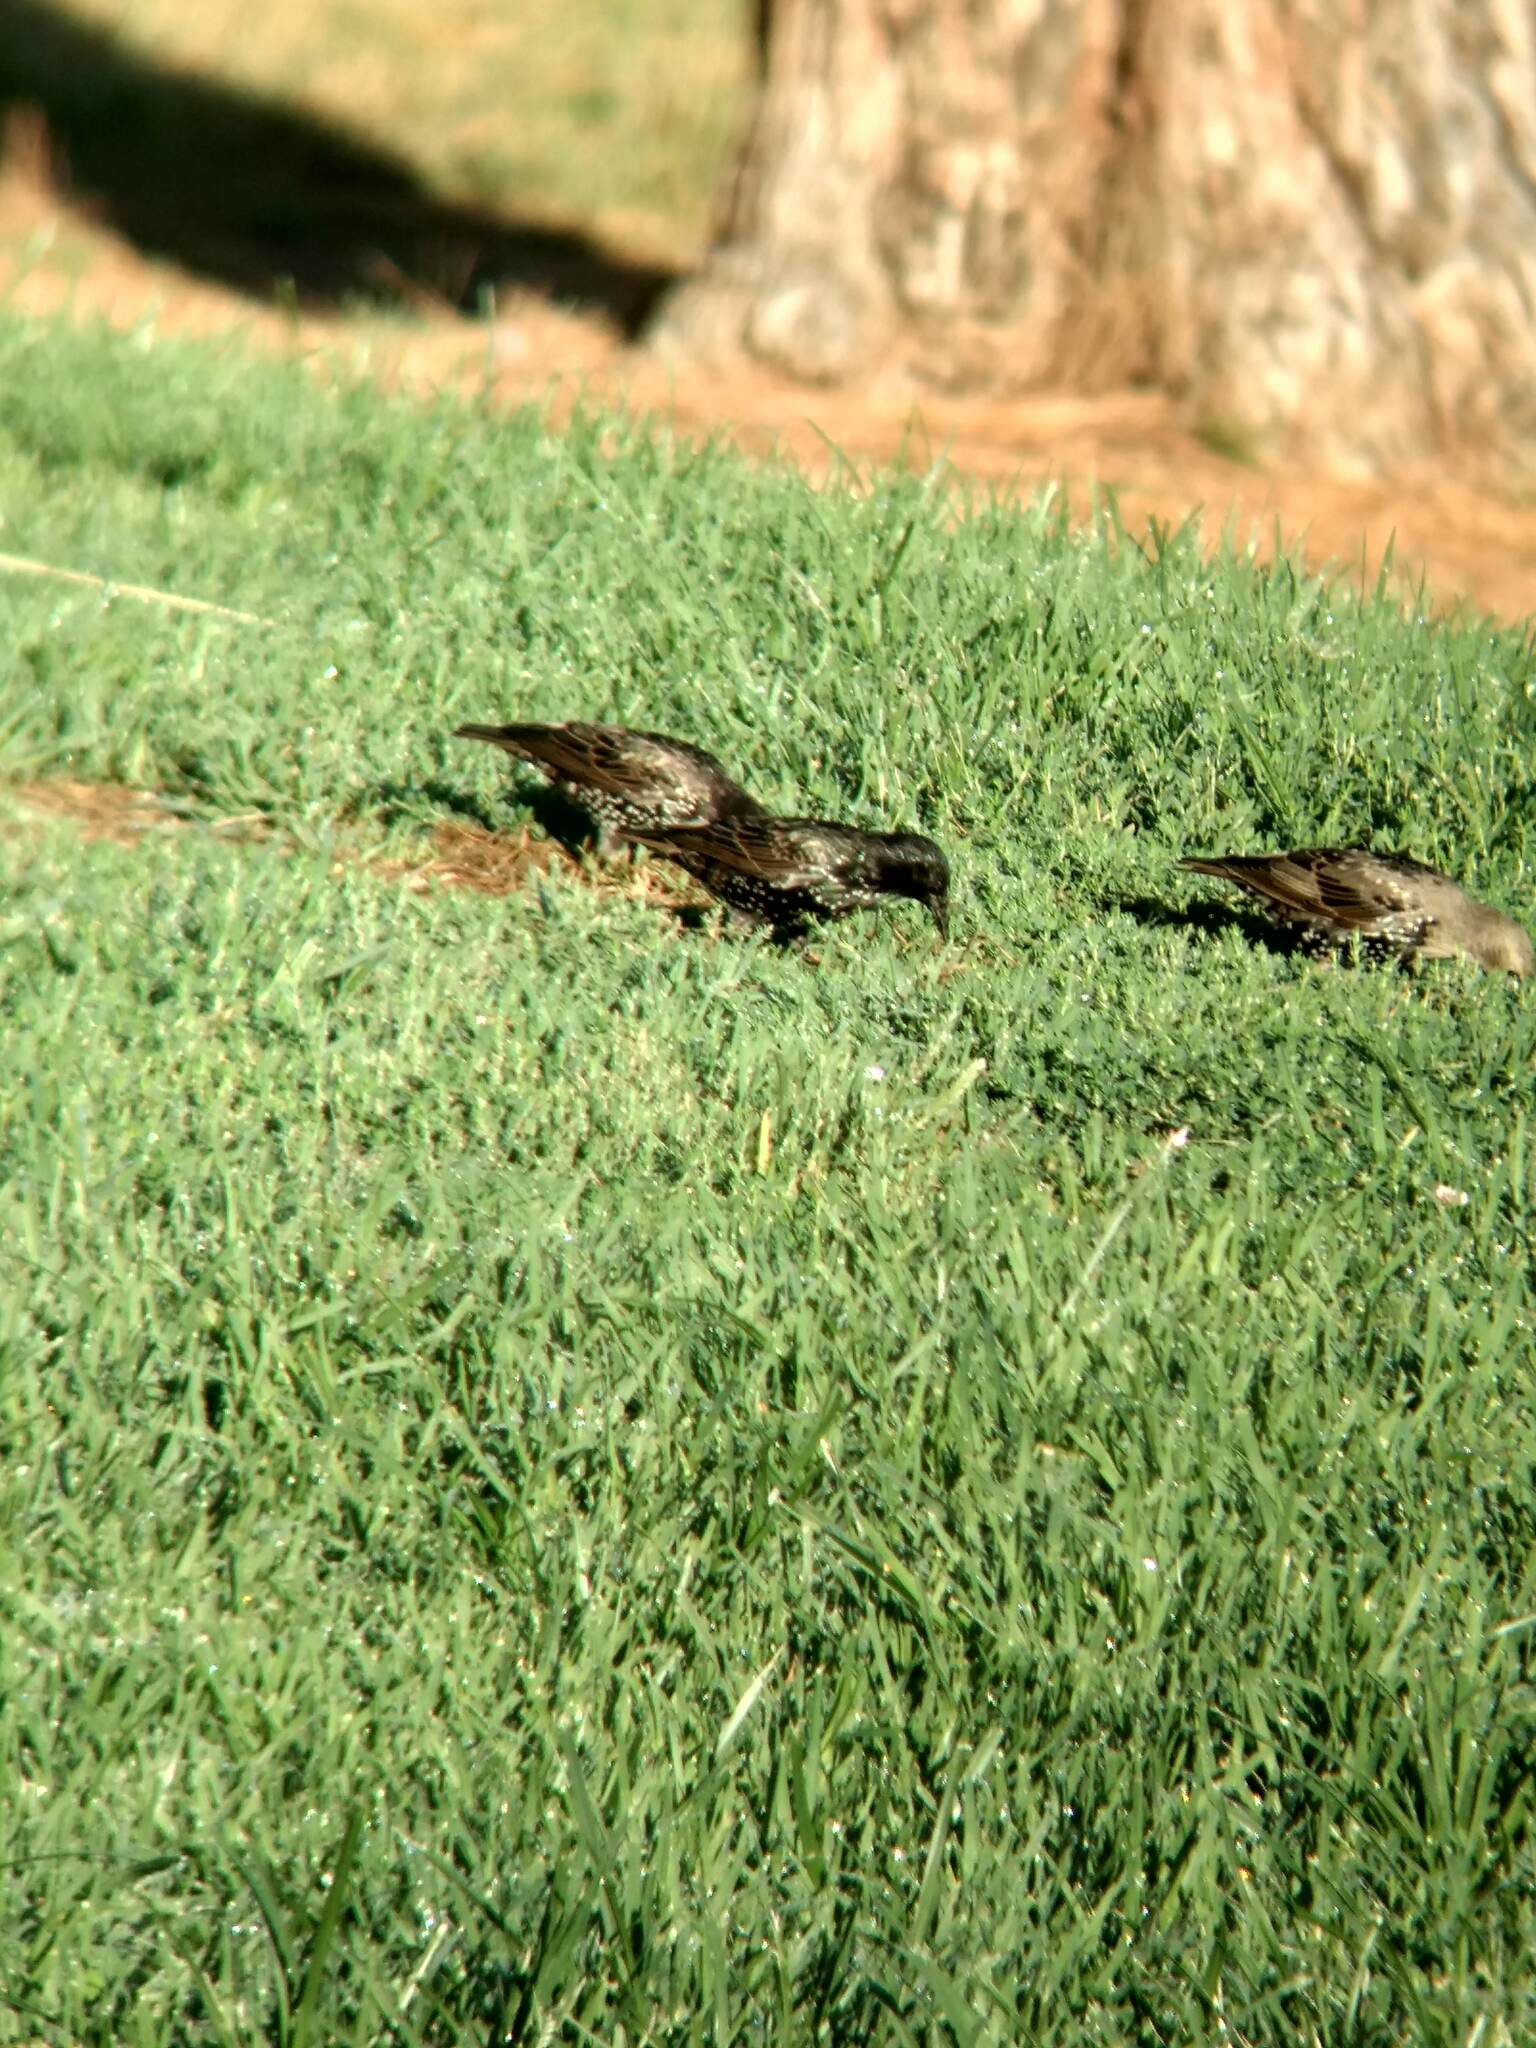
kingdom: Animalia
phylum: Chordata
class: Aves
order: Passeriformes
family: Sturnidae
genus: Sturnus
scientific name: Sturnus vulgaris
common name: Common starling
